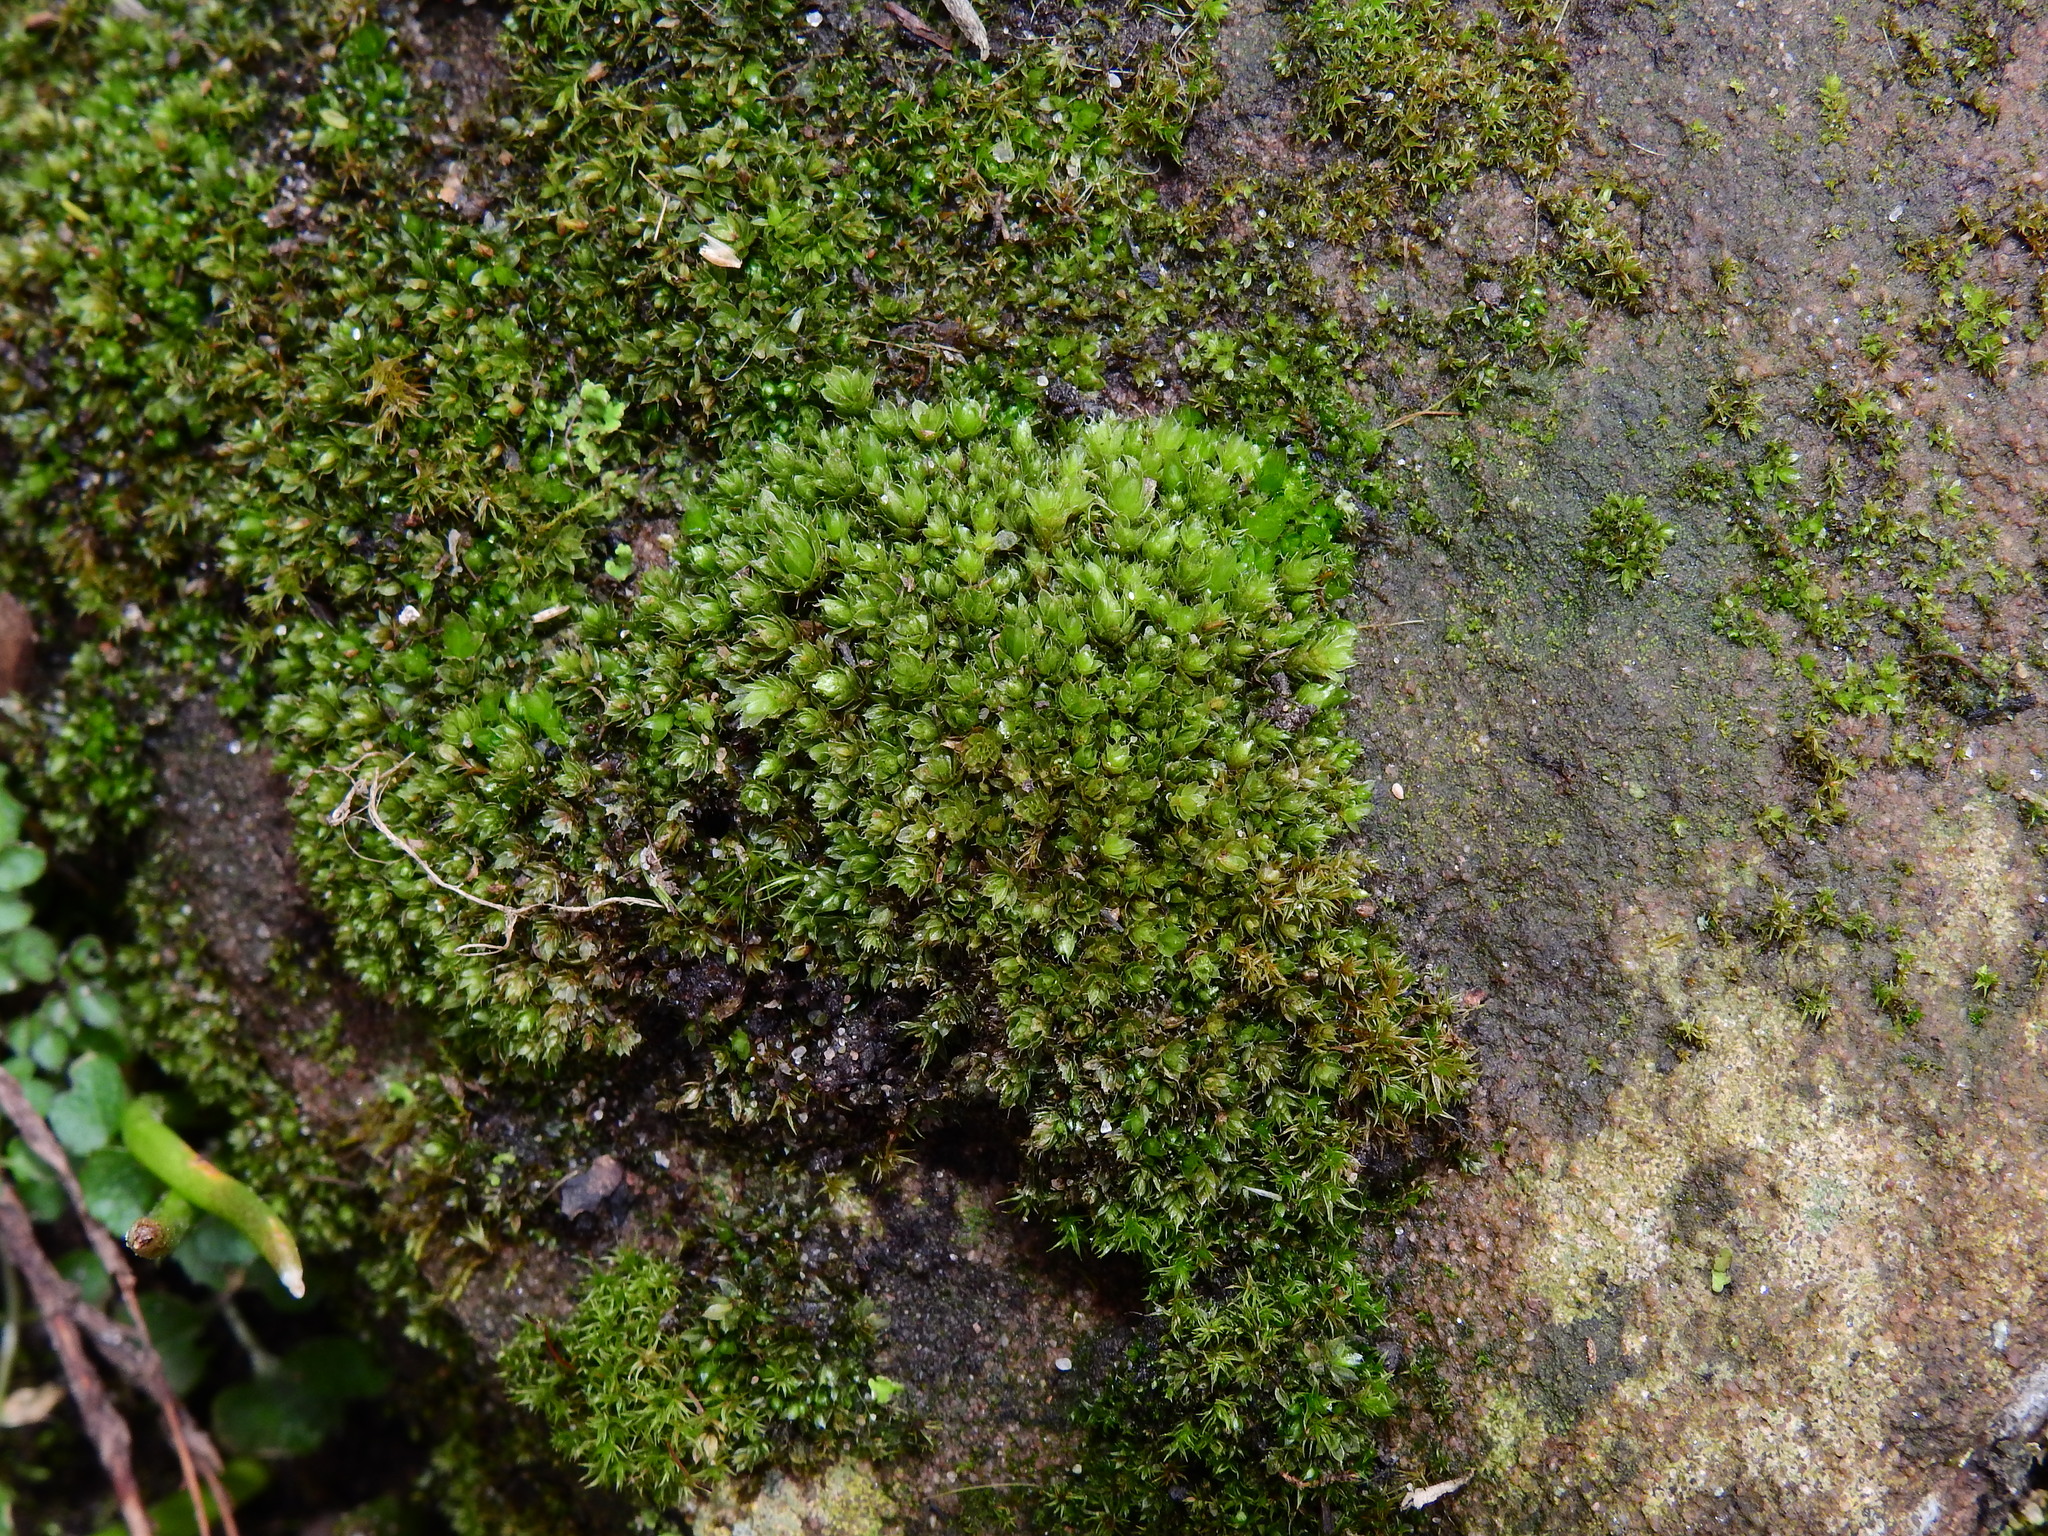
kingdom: Plantae
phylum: Bryophyta
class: Bryopsida
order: Bryales
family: Bryaceae
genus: Rosulabryum
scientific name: Rosulabryum capillare
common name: Capillary thread-moss
